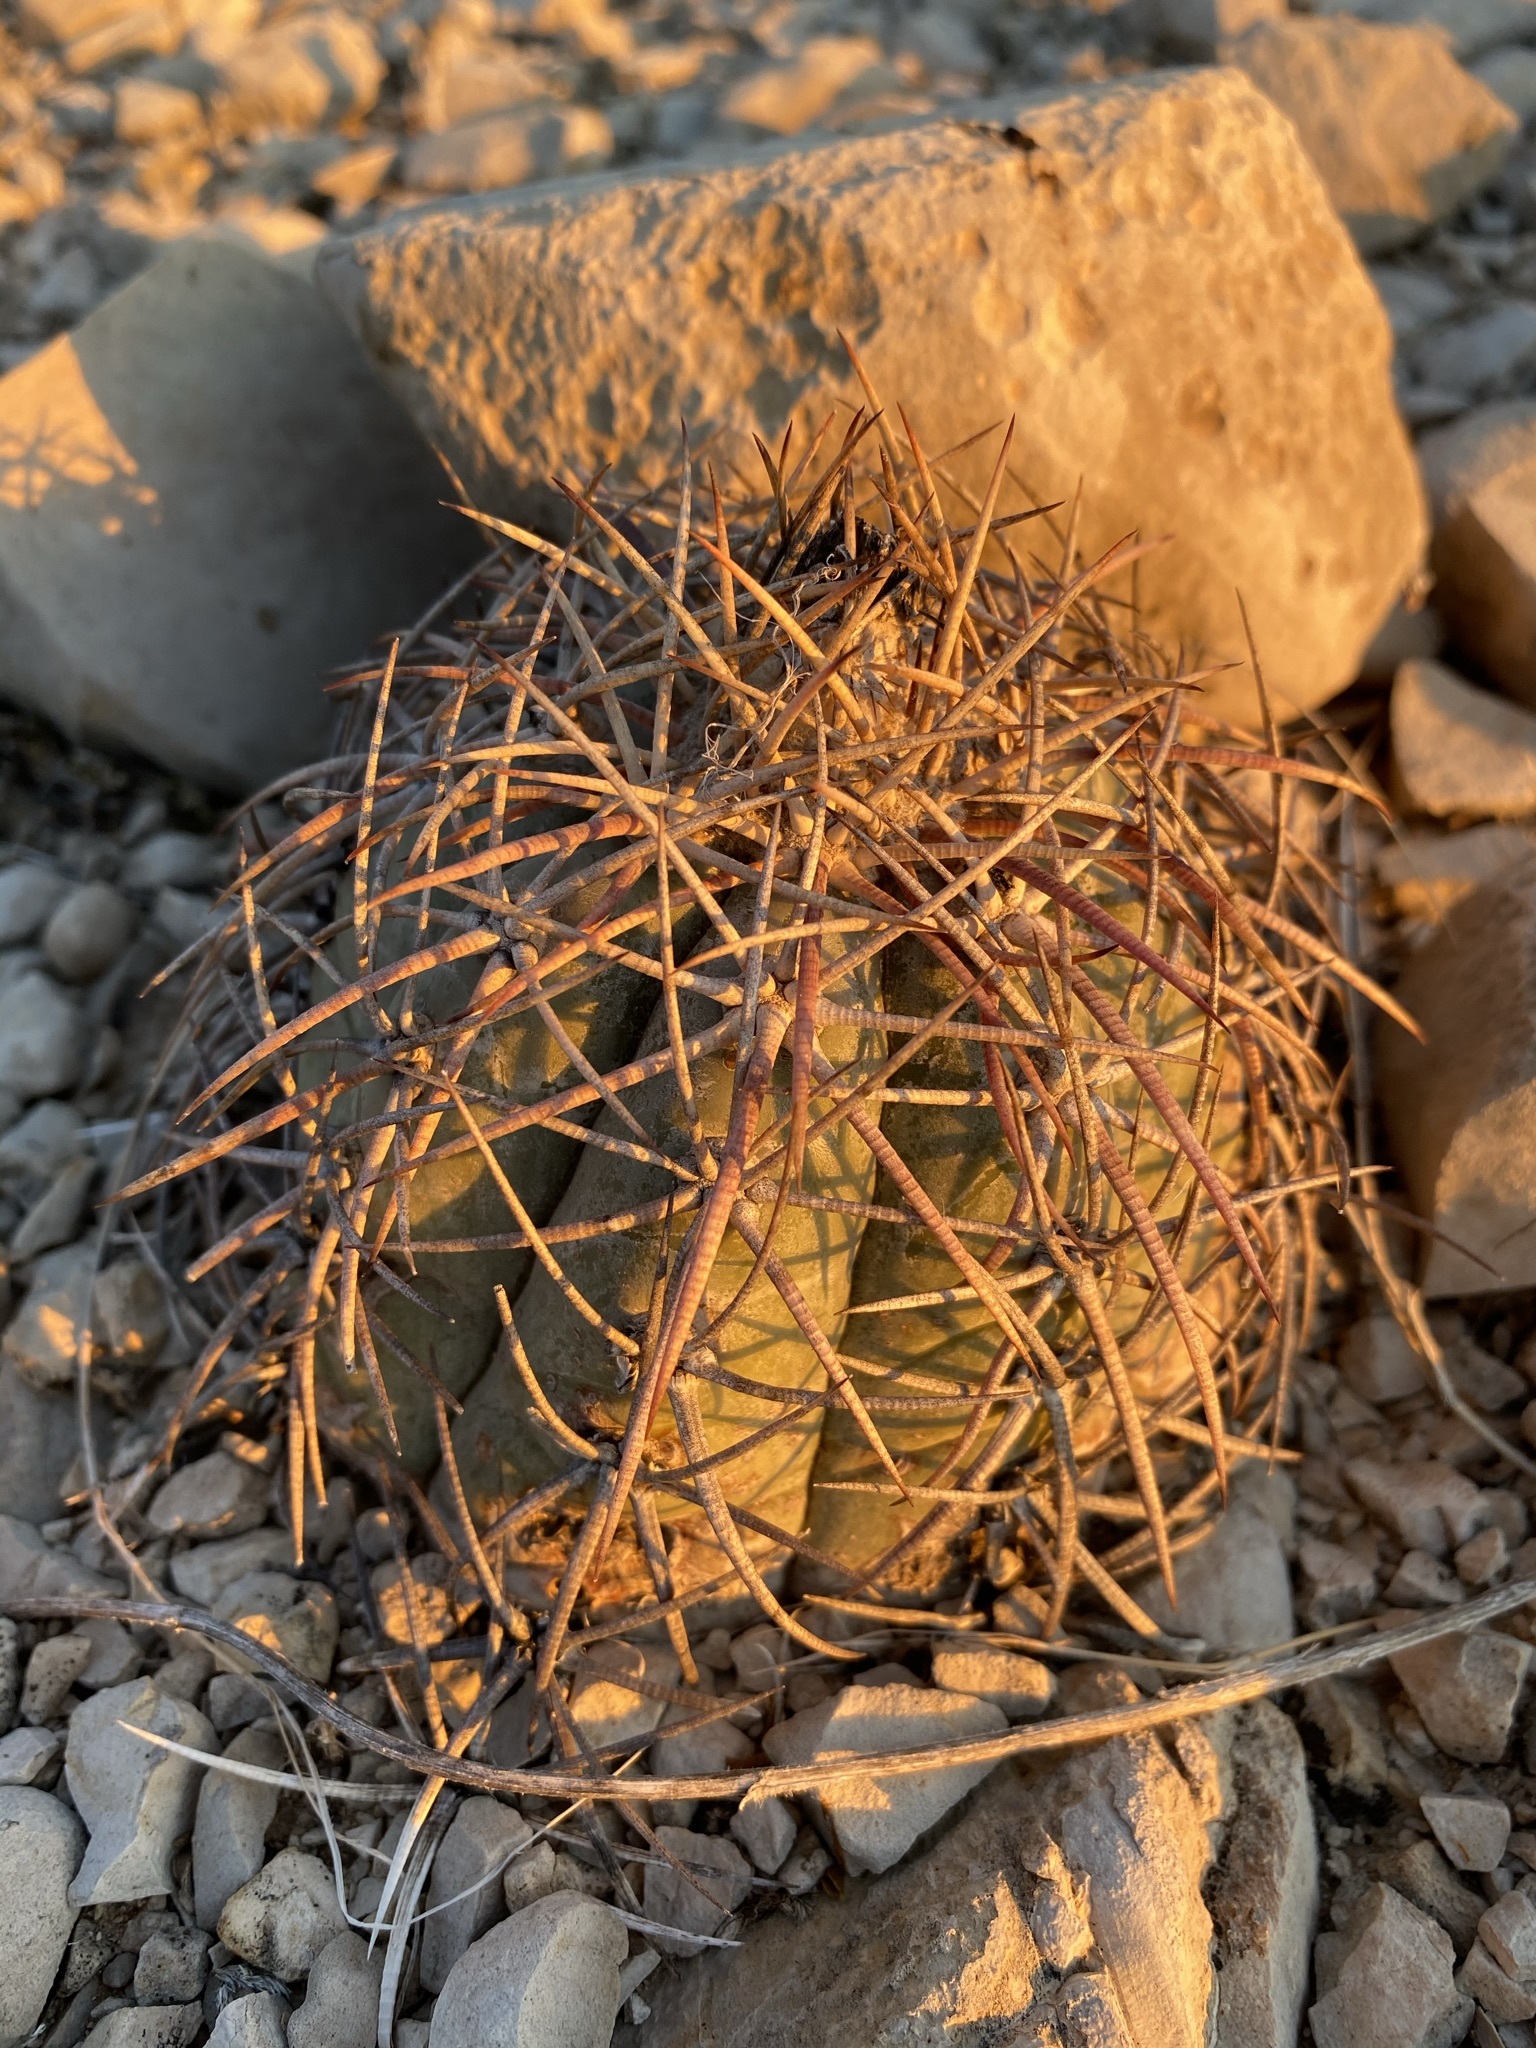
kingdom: Plantae
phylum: Tracheophyta
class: Magnoliopsida
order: Caryophyllales
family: Cactaceae
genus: Echinocactus
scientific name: Echinocactus horizonthalonius
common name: Devilshead
